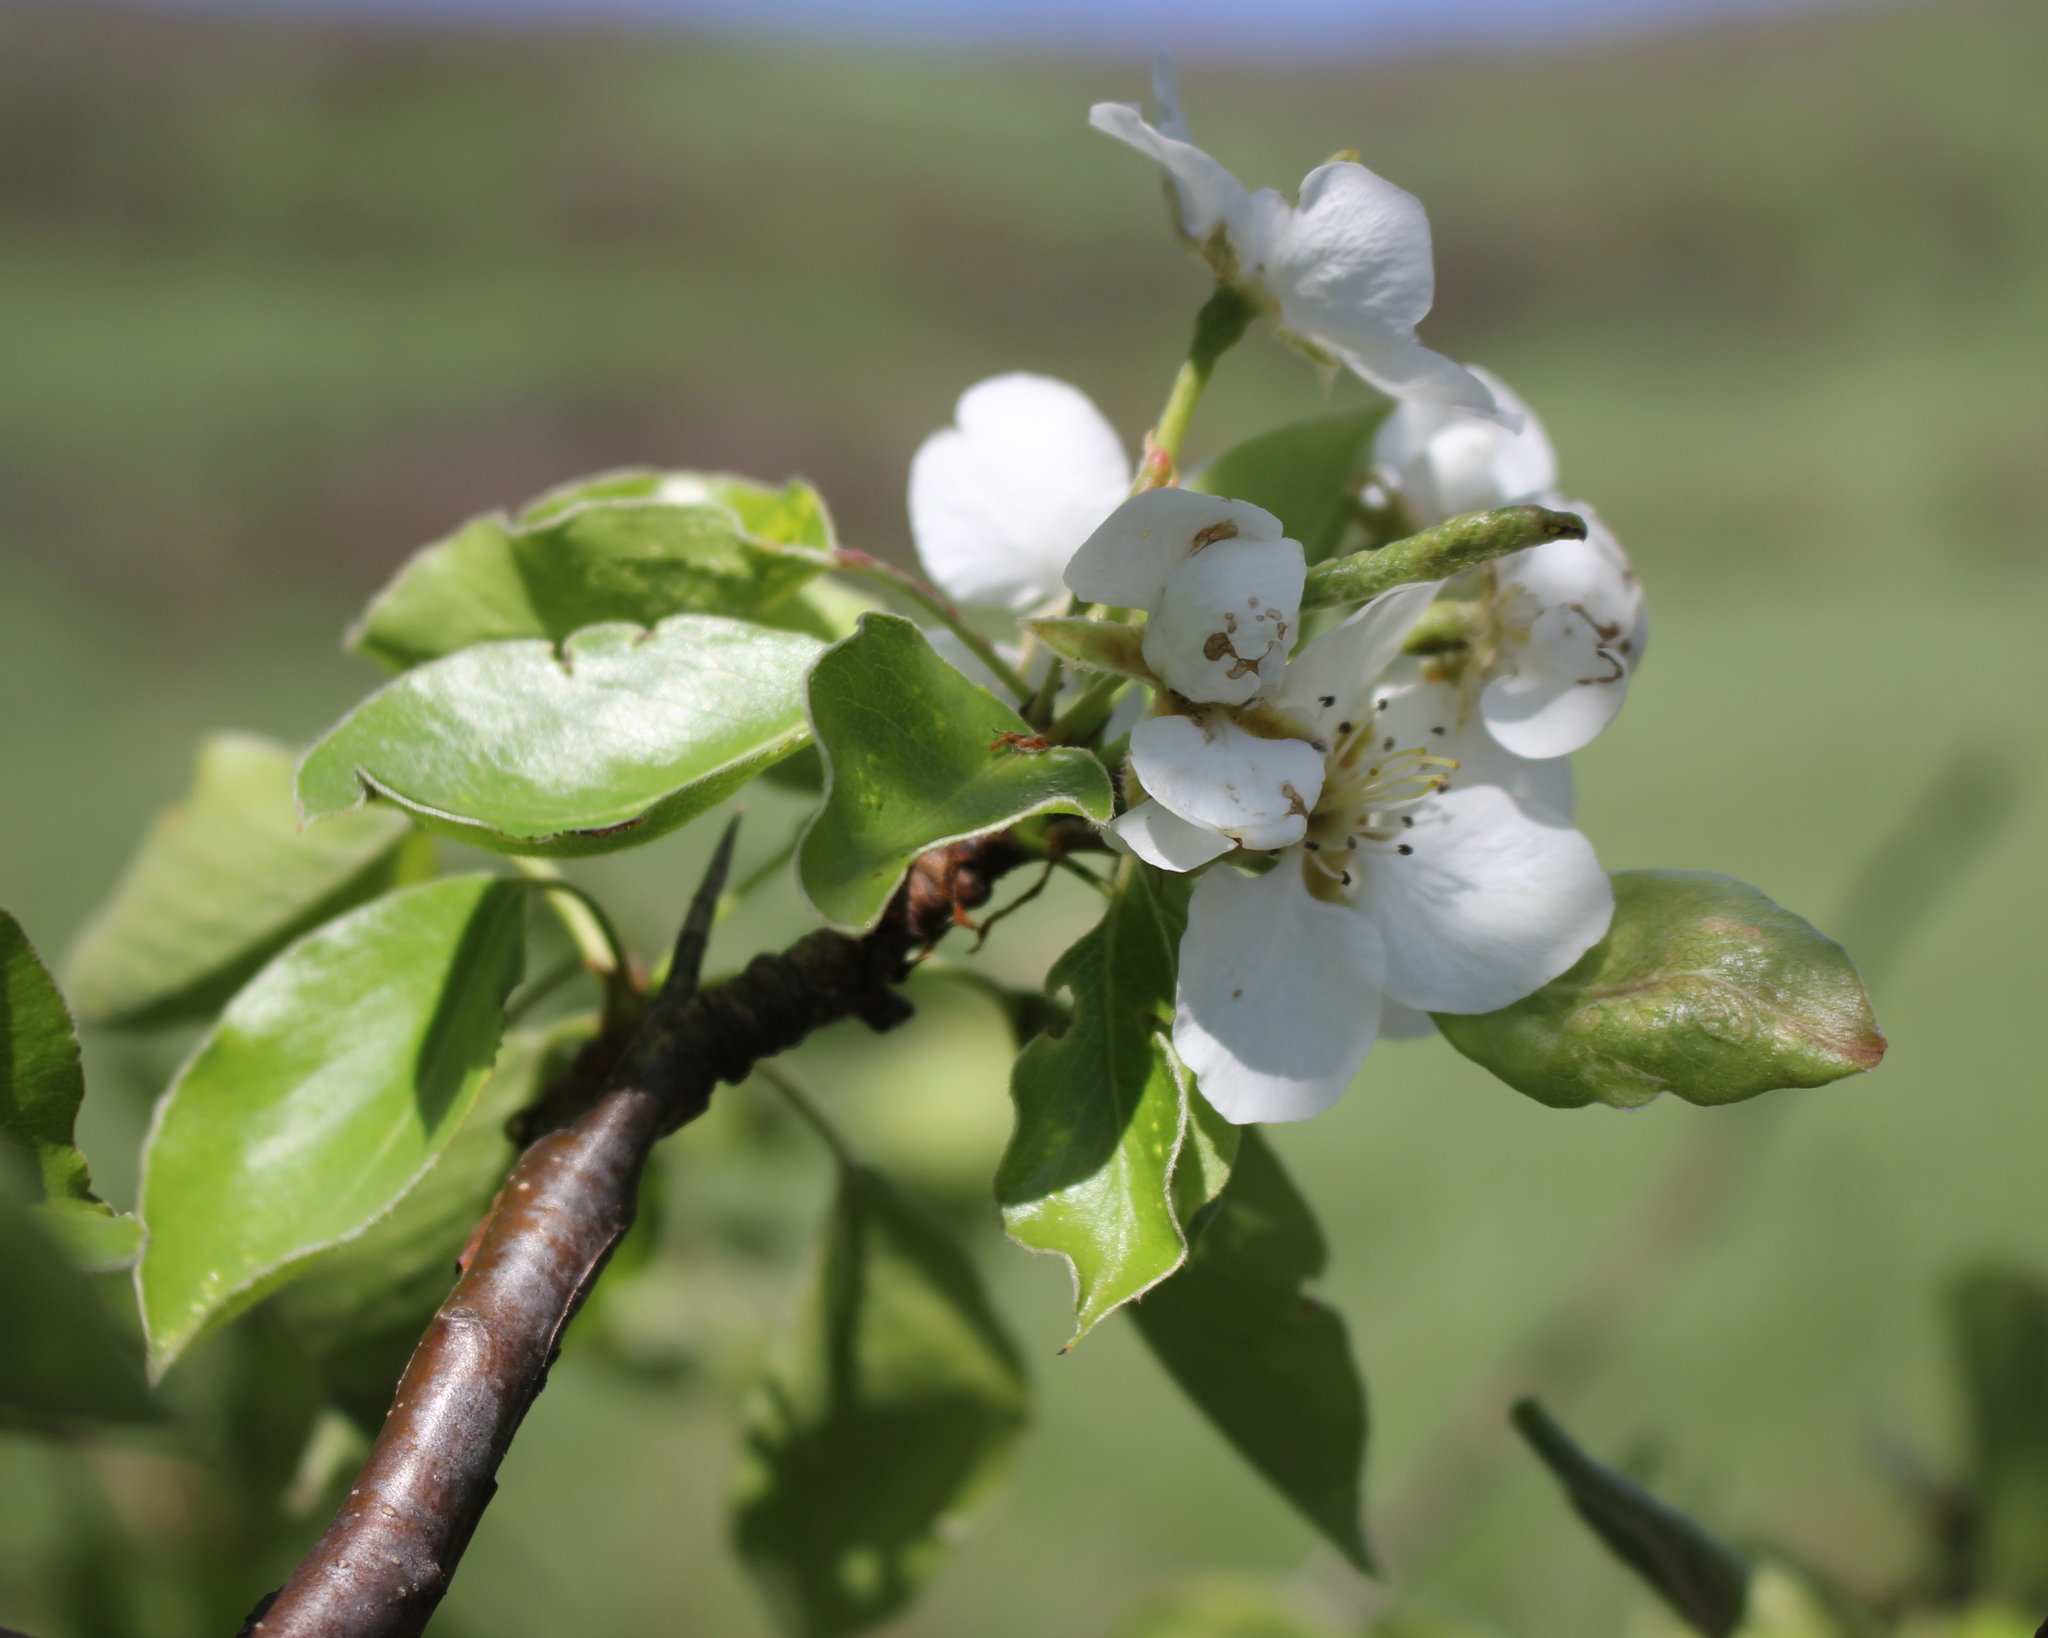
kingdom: Plantae
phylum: Tracheophyta
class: Magnoliopsida
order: Rosales
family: Rosaceae
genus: Pyrus
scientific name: Pyrus communis
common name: Pear
